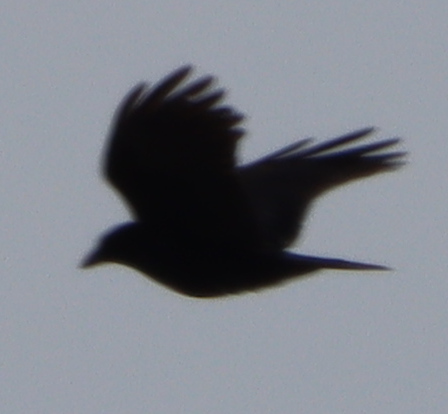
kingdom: Animalia
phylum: Chordata
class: Aves
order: Passeriformes
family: Corvidae
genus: Corvus
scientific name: Corvus brachyrhynchos
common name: American crow
